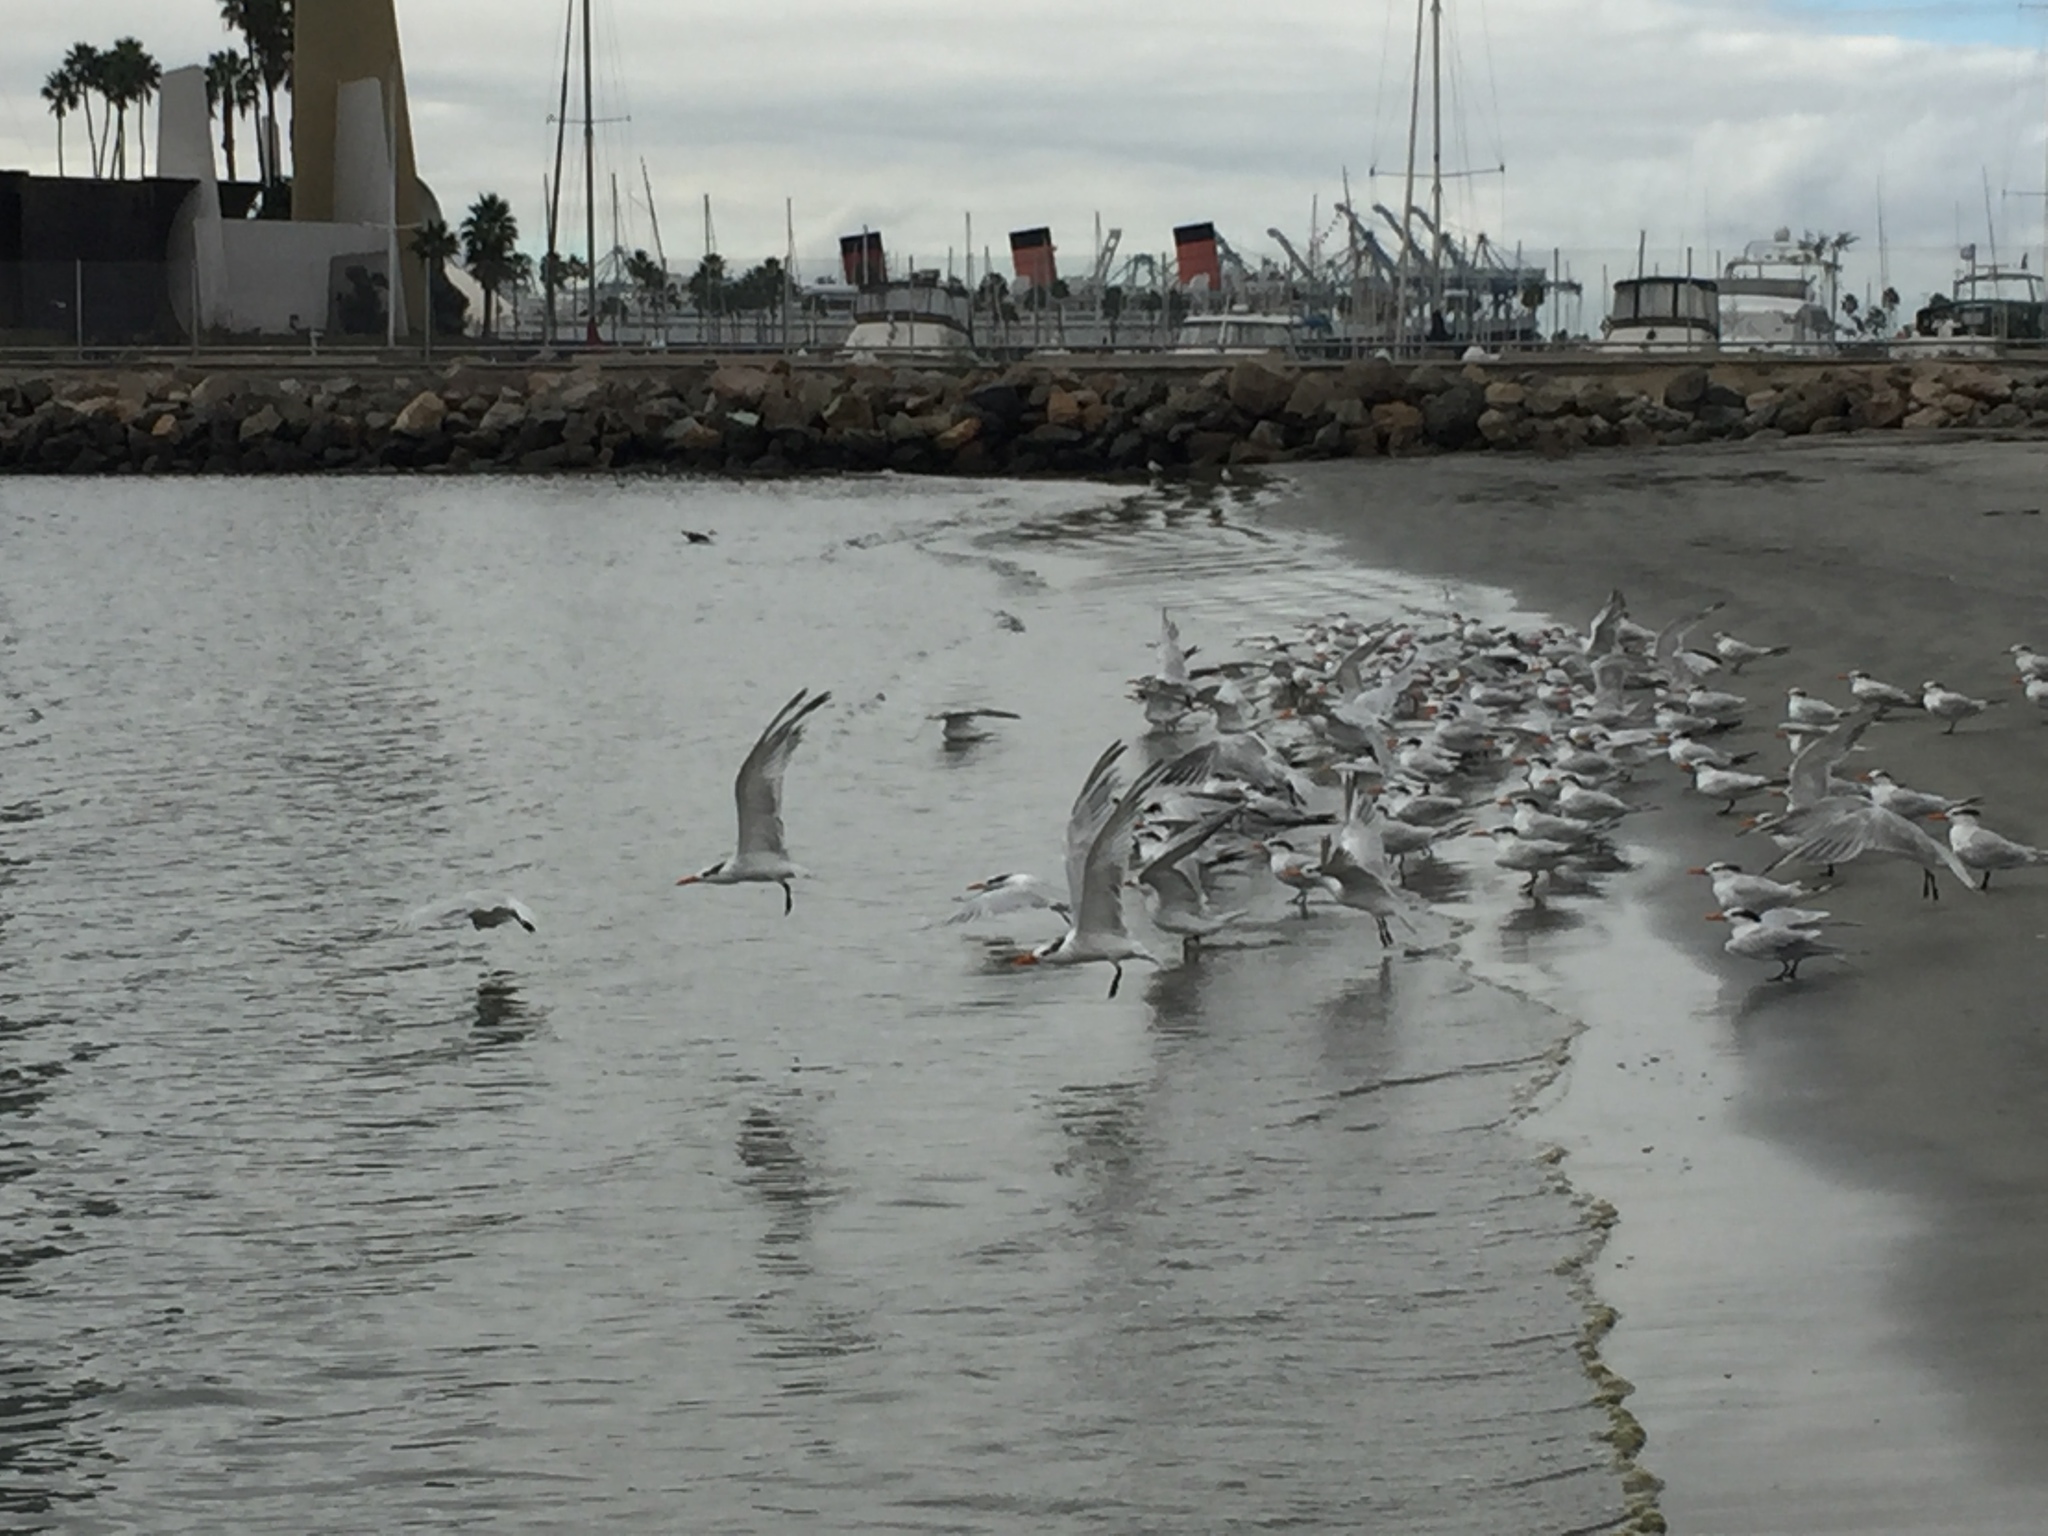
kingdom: Animalia
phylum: Chordata
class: Aves
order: Charadriiformes
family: Laridae
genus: Thalasseus
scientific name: Thalasseus elegans
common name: Elegant tern
